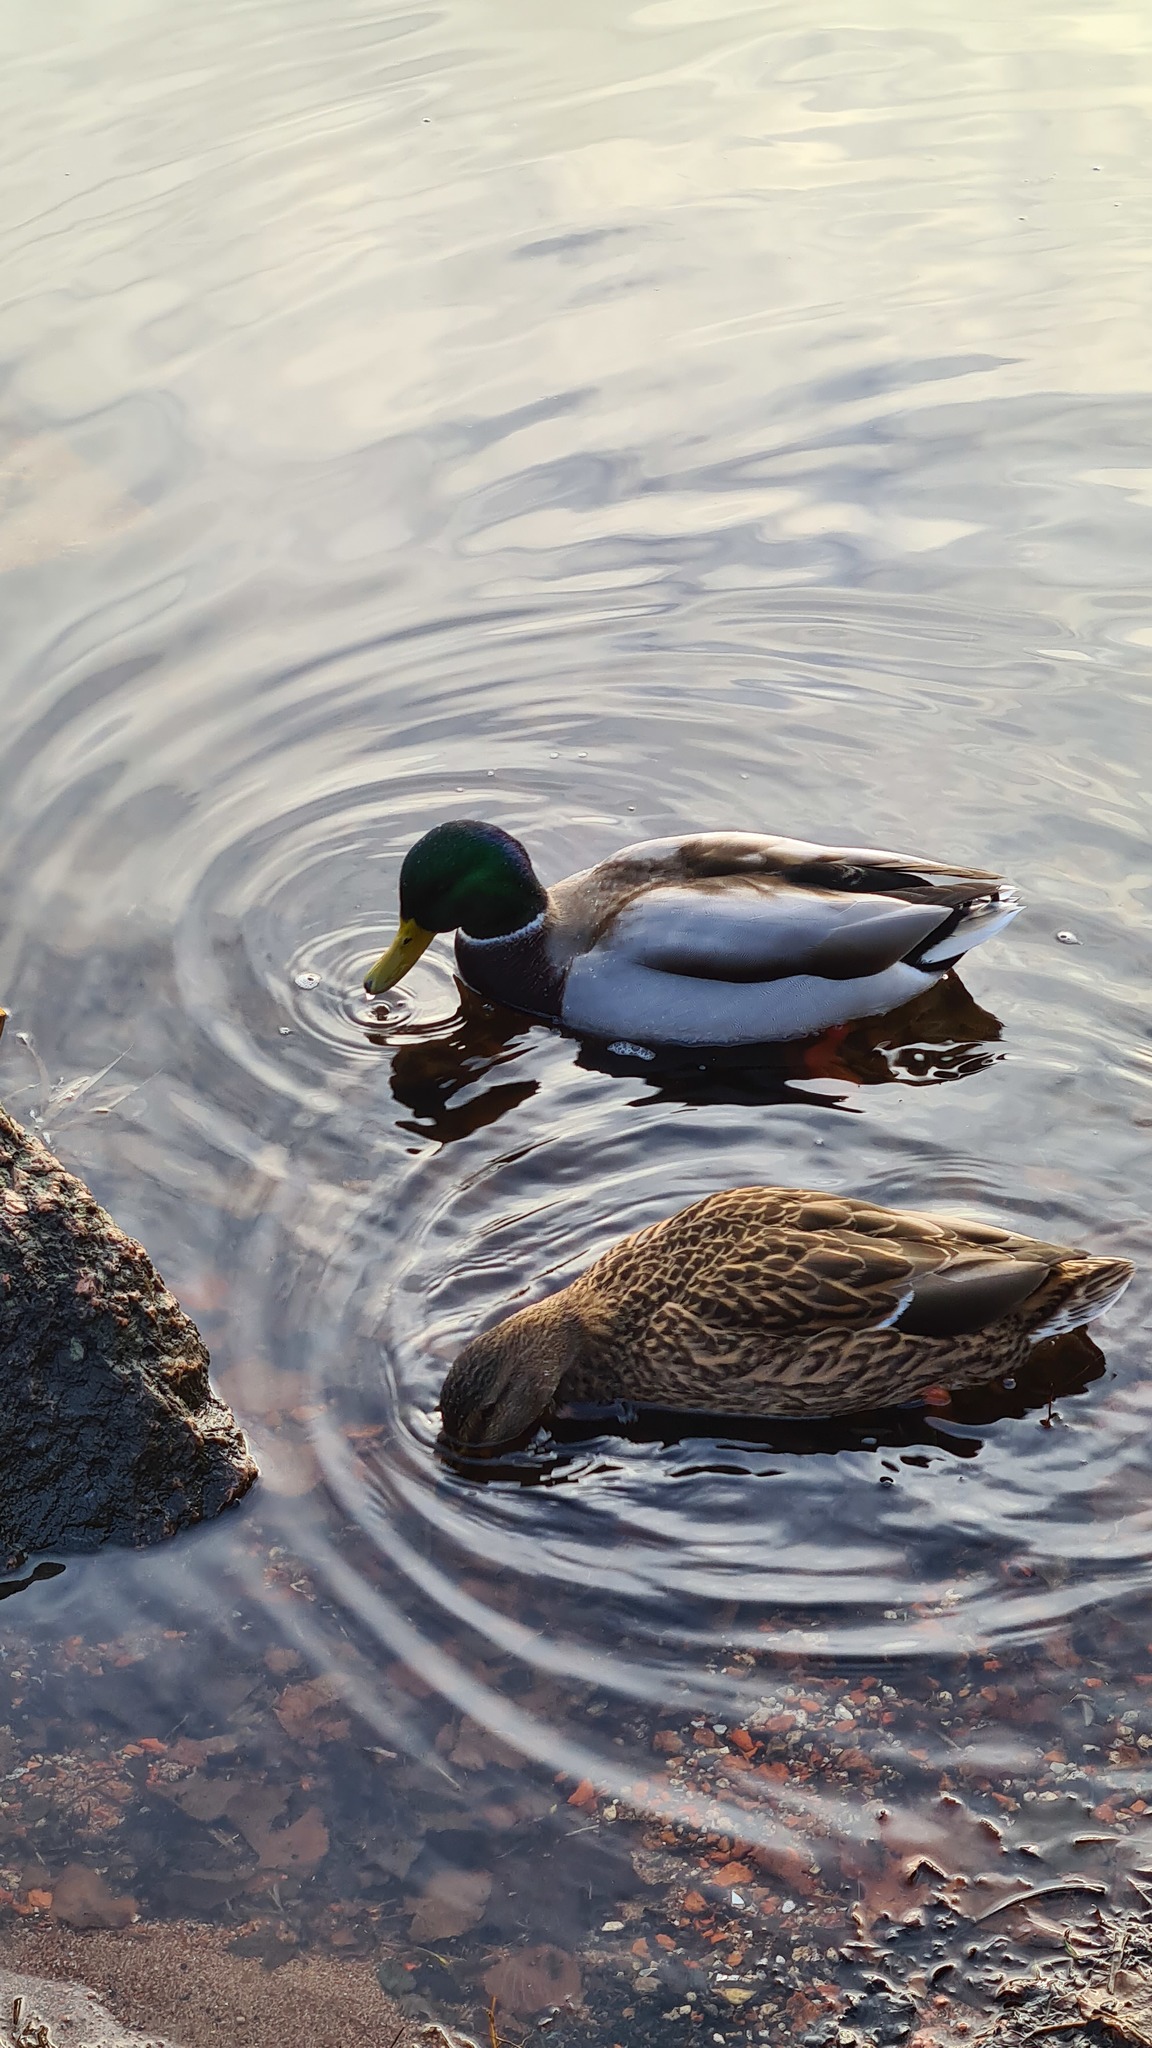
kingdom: Animalia
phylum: Chordata
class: Aves
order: Anseriformes
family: Anatidae
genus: Anas
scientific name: Anas platyrhynchos
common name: Mallard
